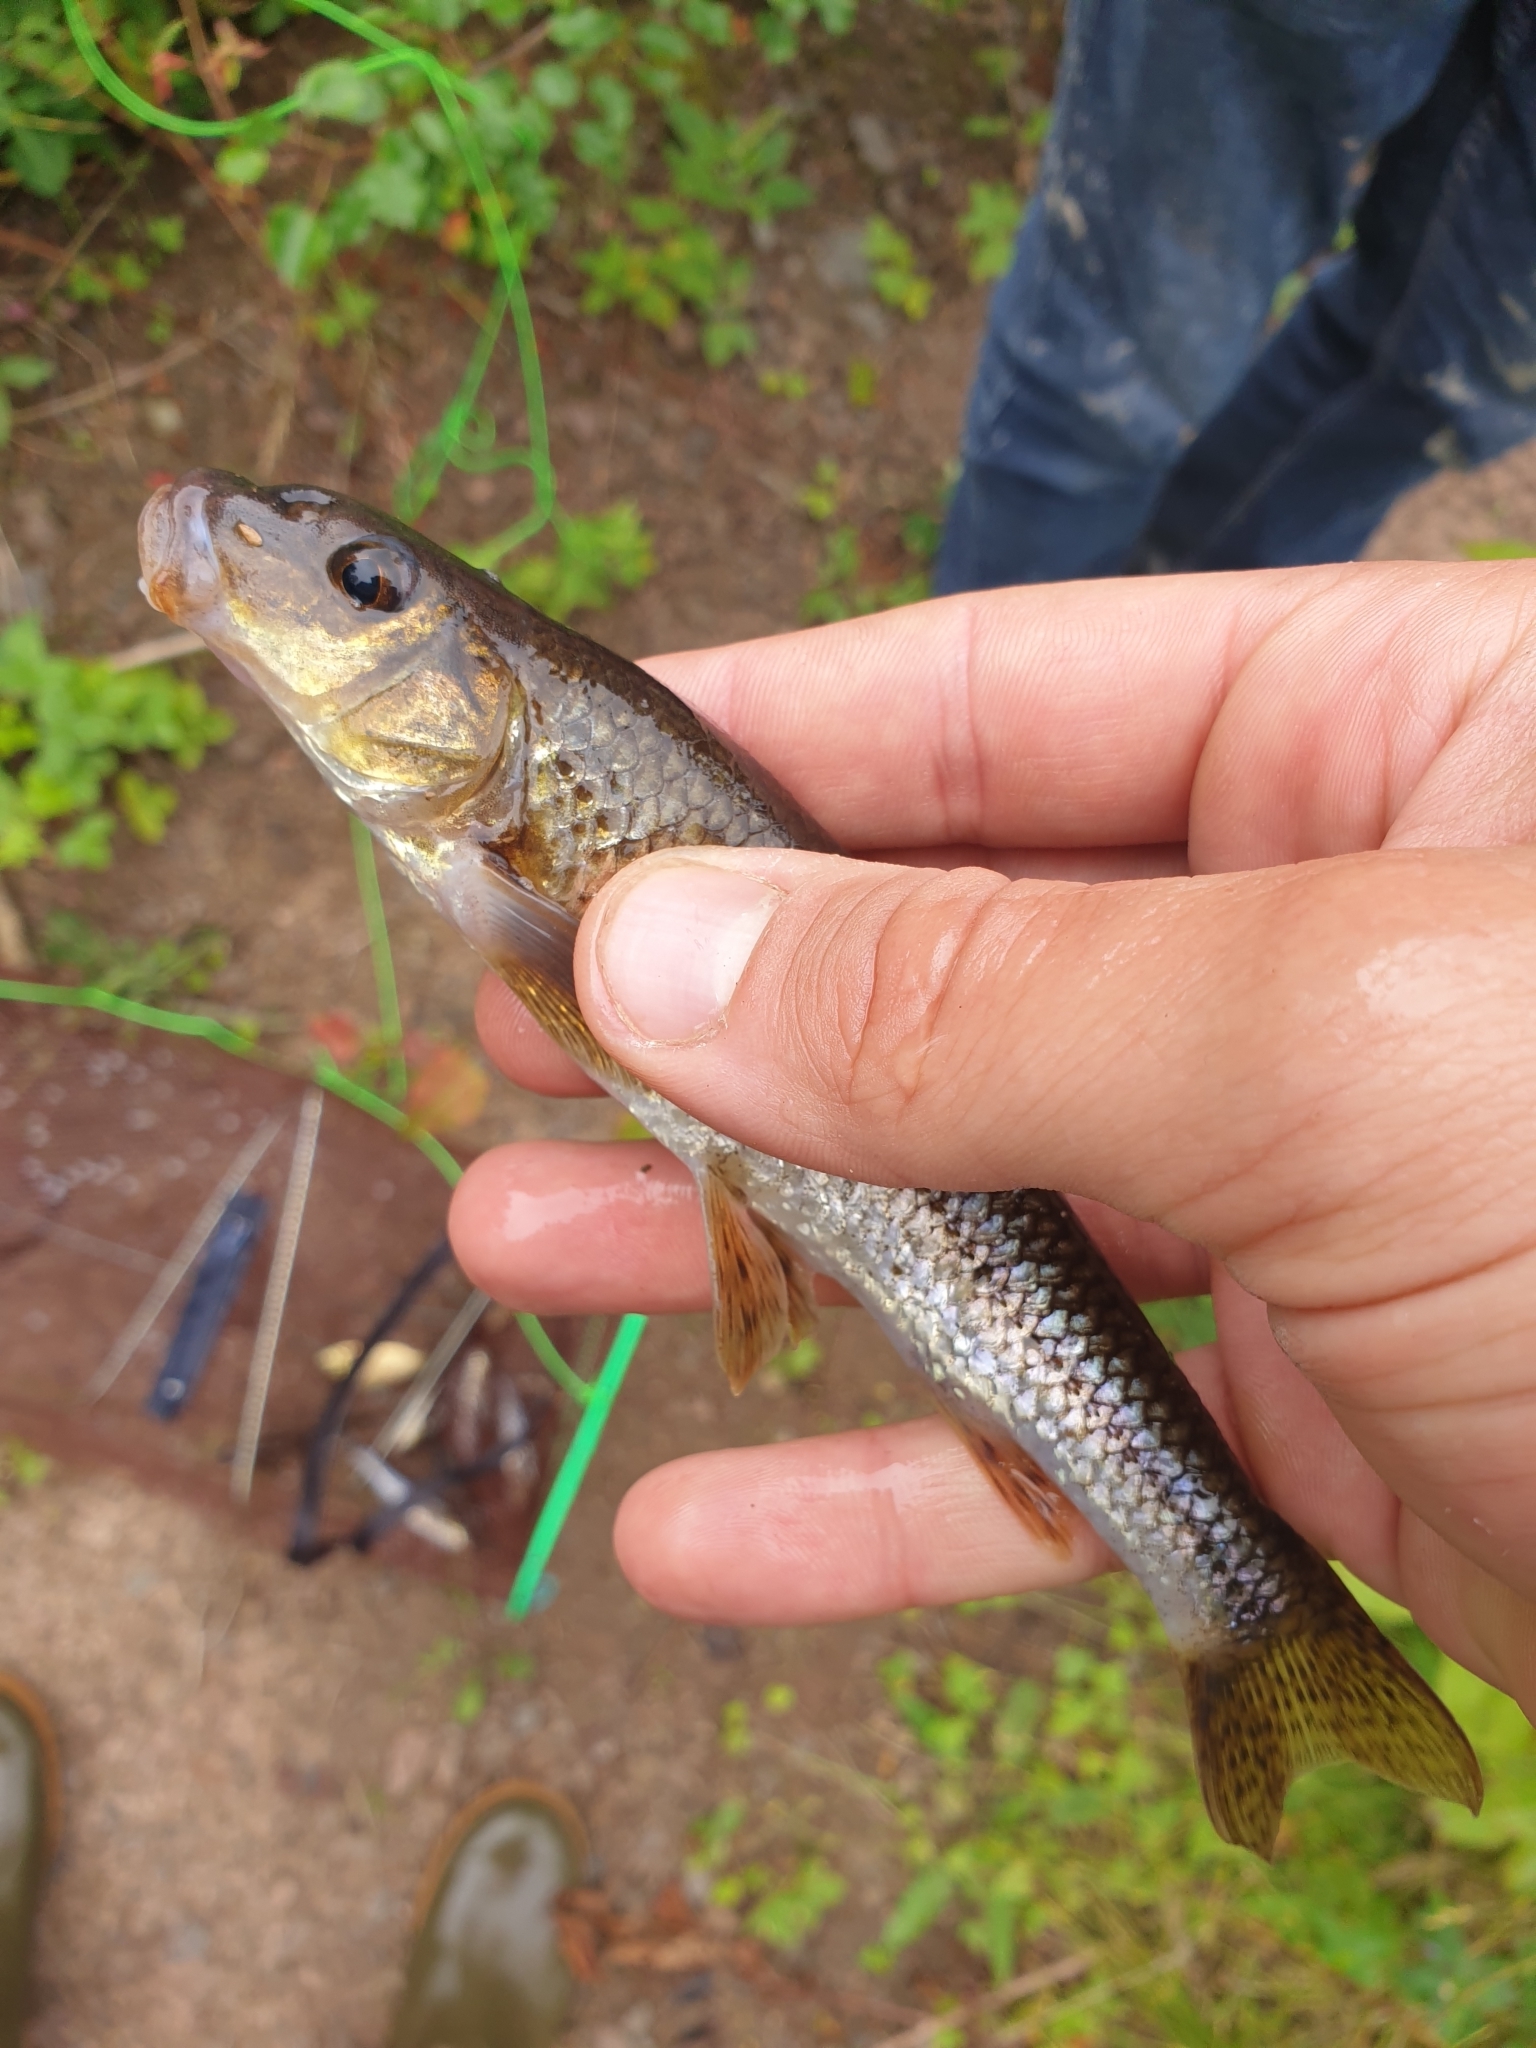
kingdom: Animalia
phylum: Chordata
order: Cypriniformes
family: Cyprinidae
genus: Gobio
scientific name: Gobio gobio
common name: Gudgeon
